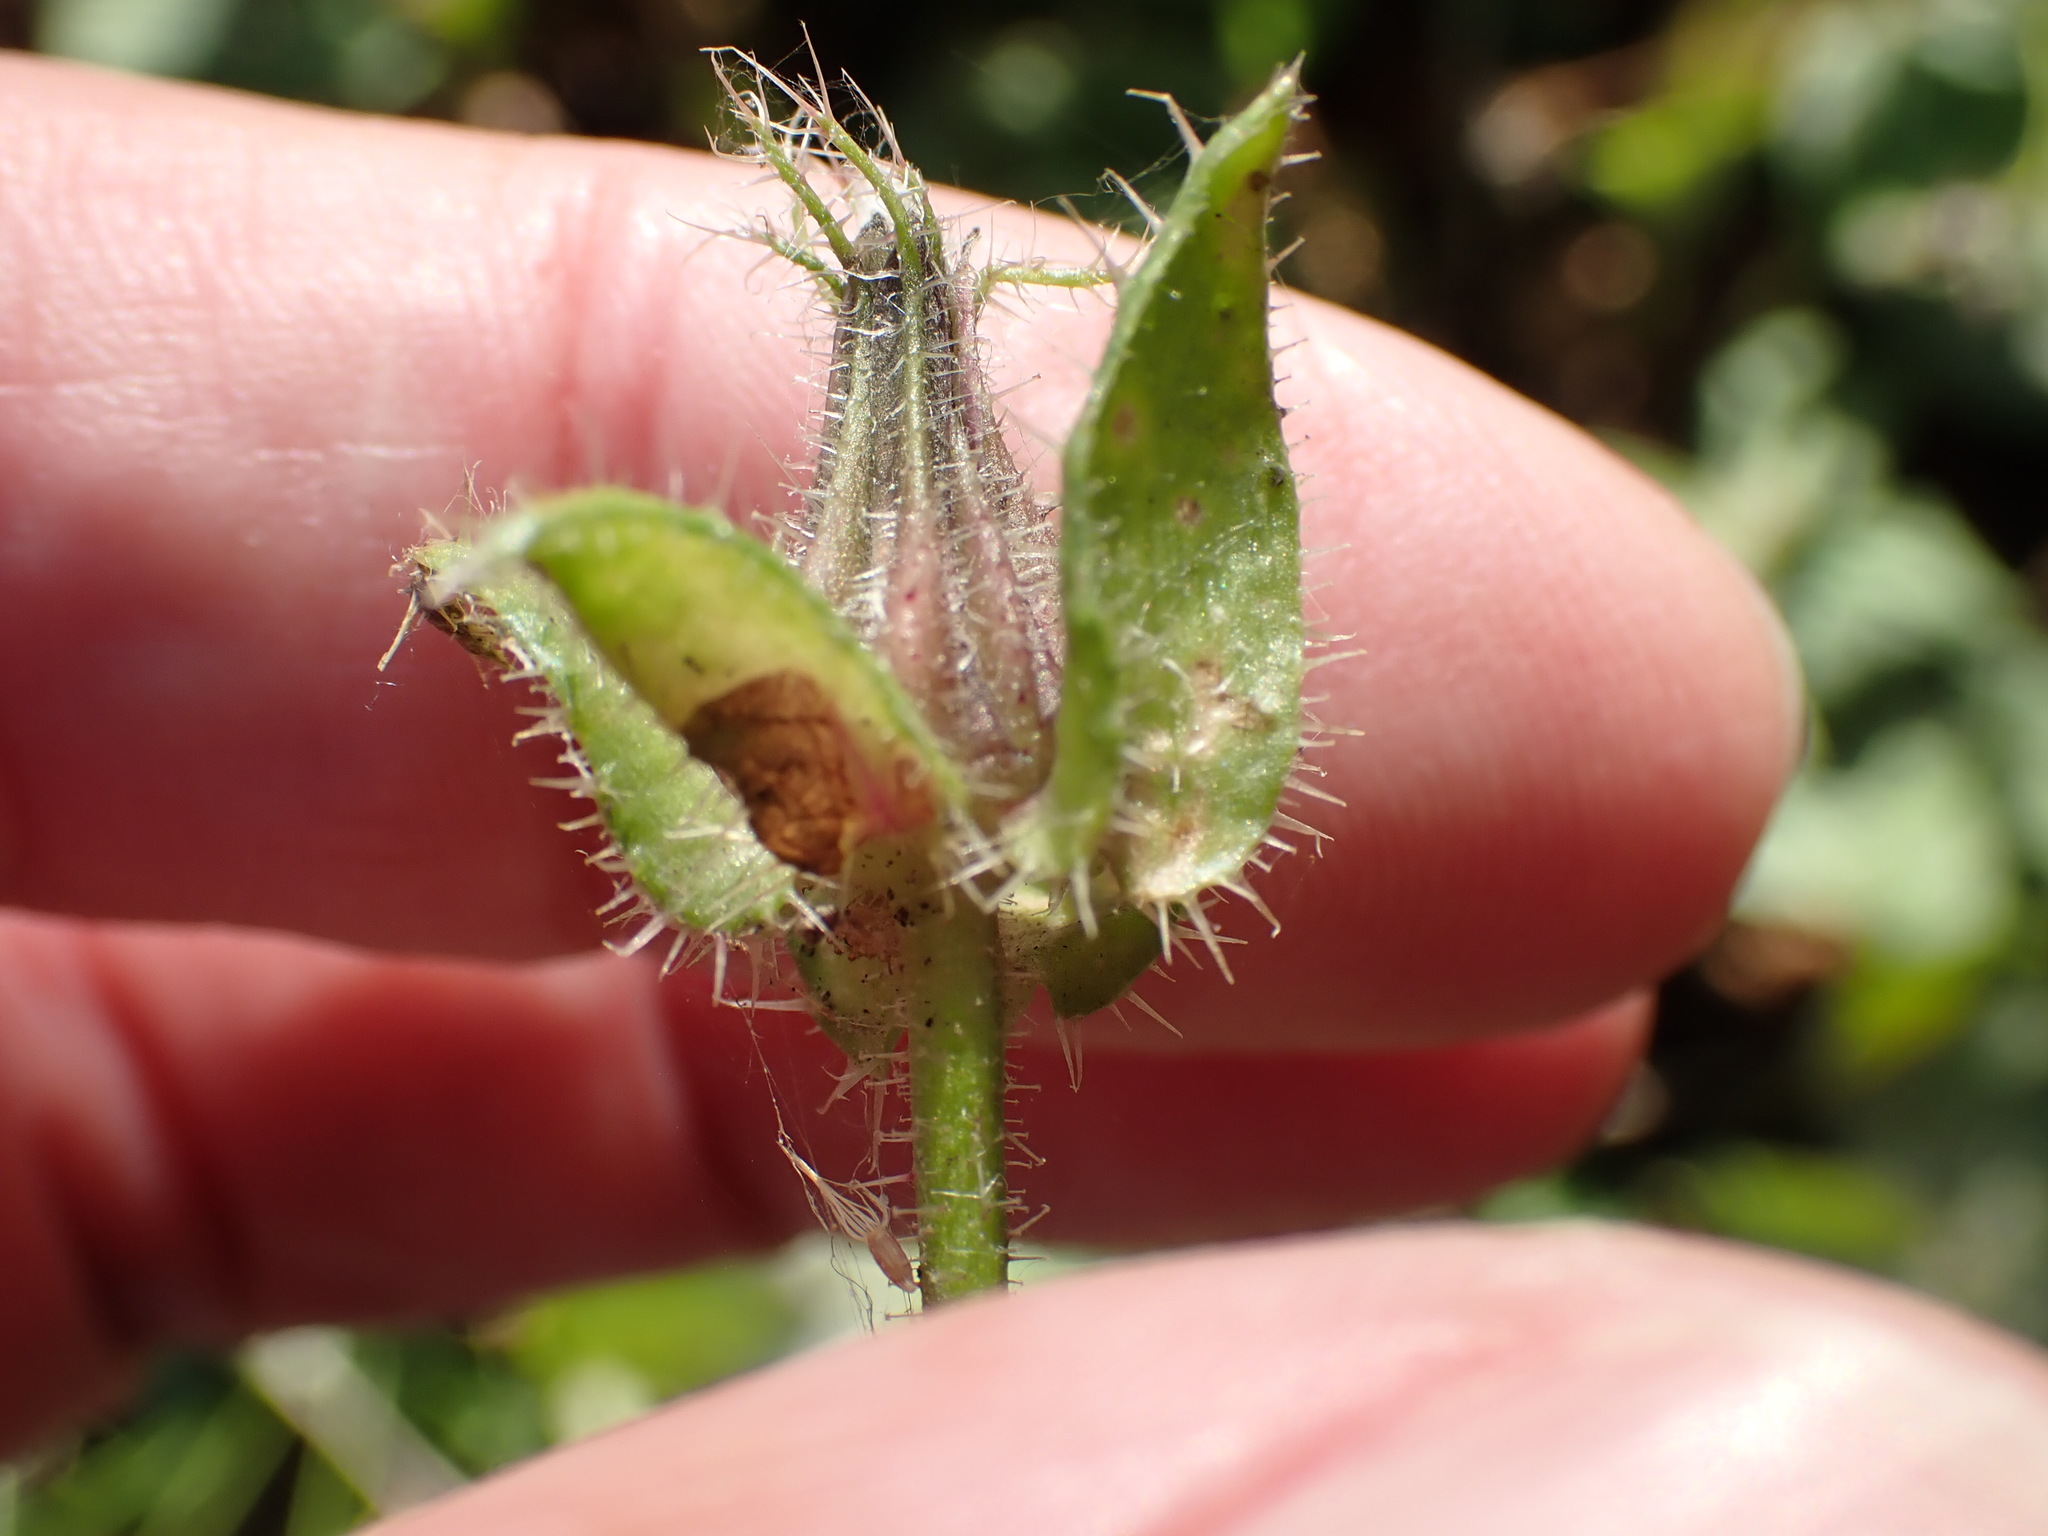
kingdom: Plantae
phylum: Tracheophyta
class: Magnoliopsida
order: Asterales
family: Asteraceae
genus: Helminthotheca
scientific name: Helminthotheca echioides
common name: Ox-tongue
